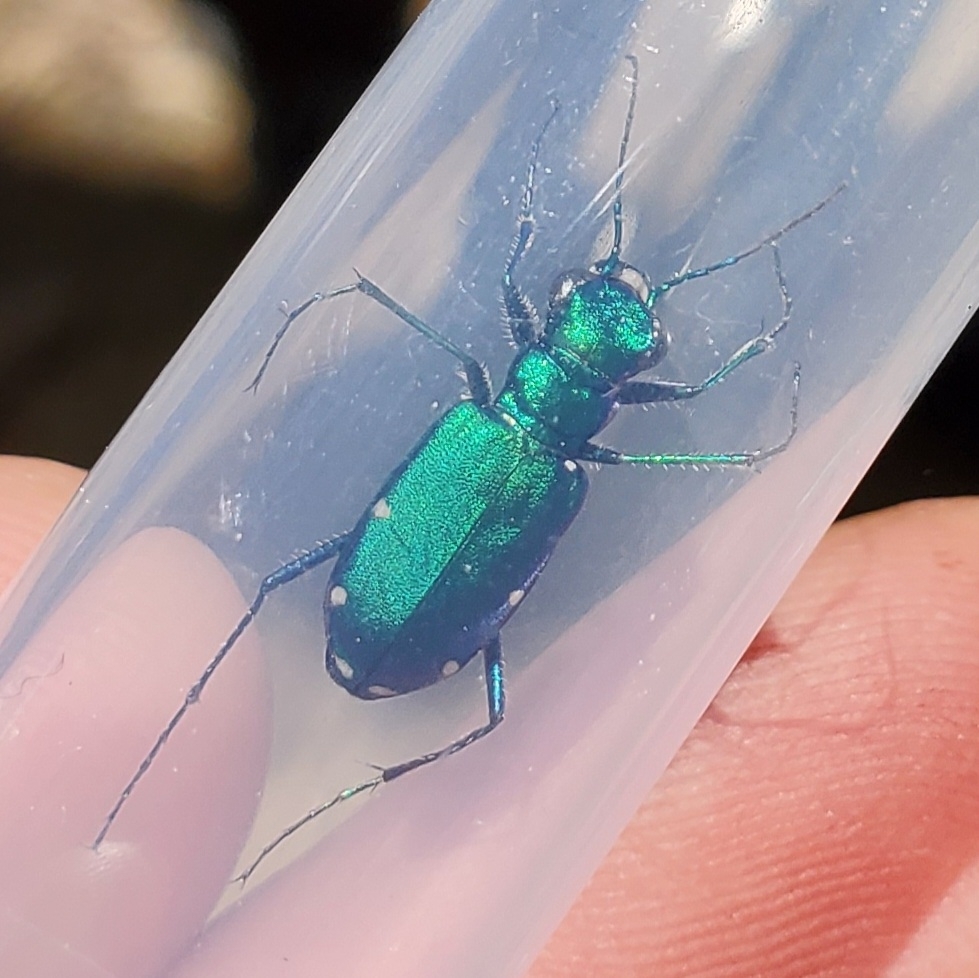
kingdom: Animalia
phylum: Arthropoda
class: Insecta
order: Coleoptera
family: Carabidae
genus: Cicindela
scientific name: Cicindela sexguttata
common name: Six-spotted tiger beetle
